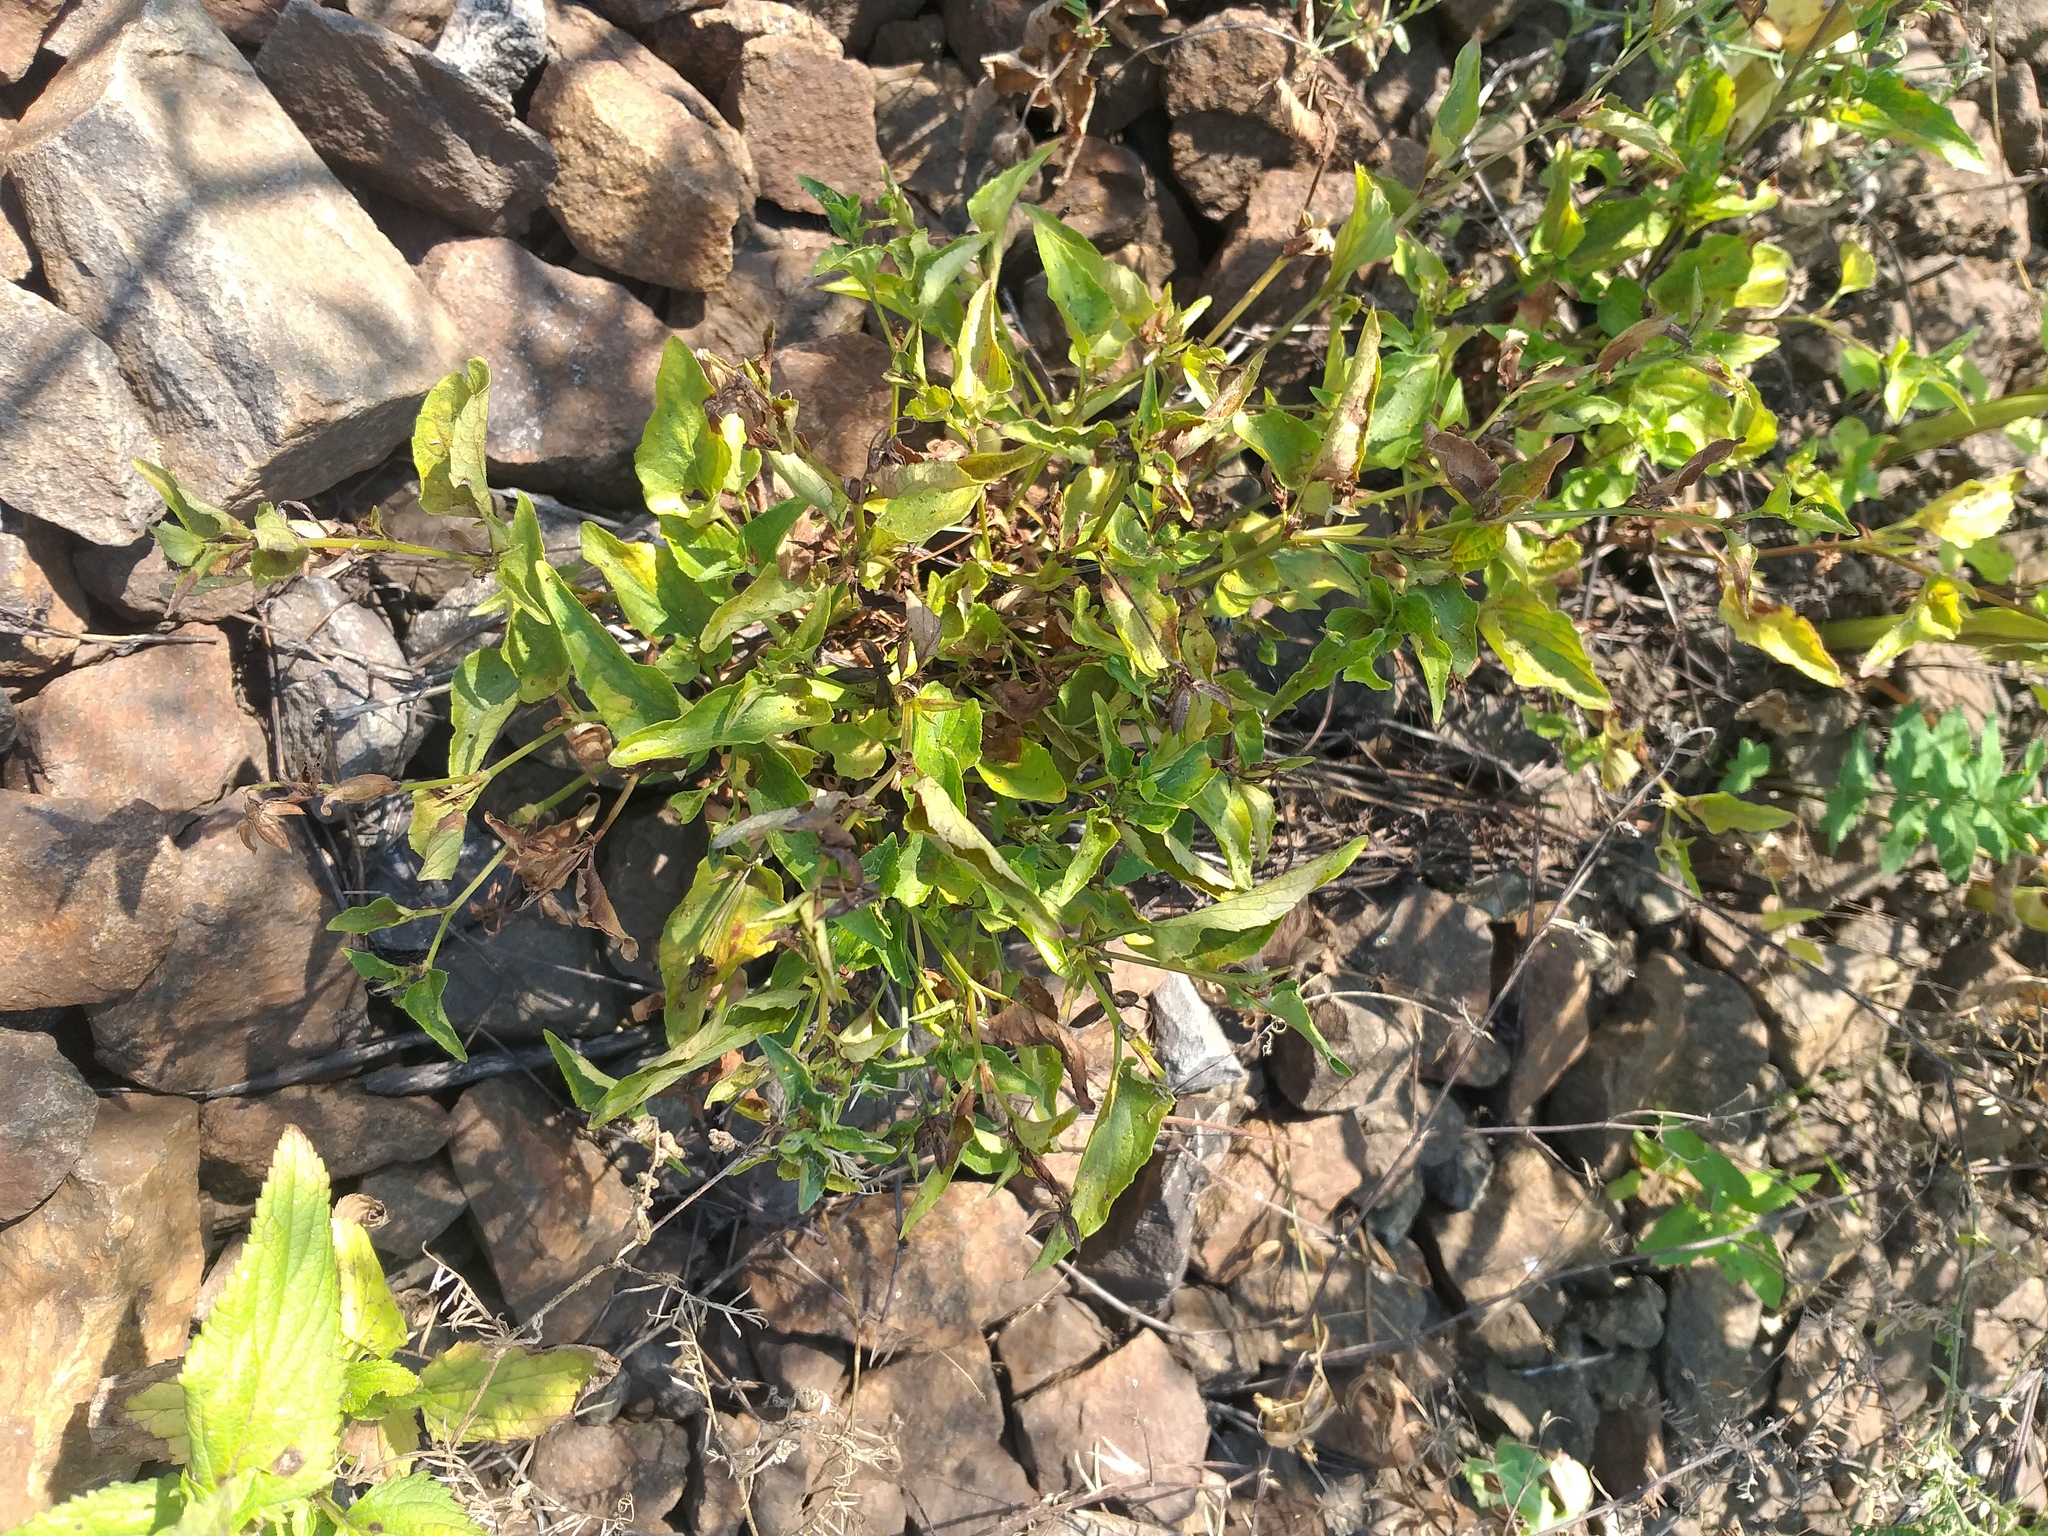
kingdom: Plantae
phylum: Tracheophyta
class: Magnoliopsida
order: Malpighiales
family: Violaceae
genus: Viola
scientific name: Viola canina
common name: Heath dog-violet
